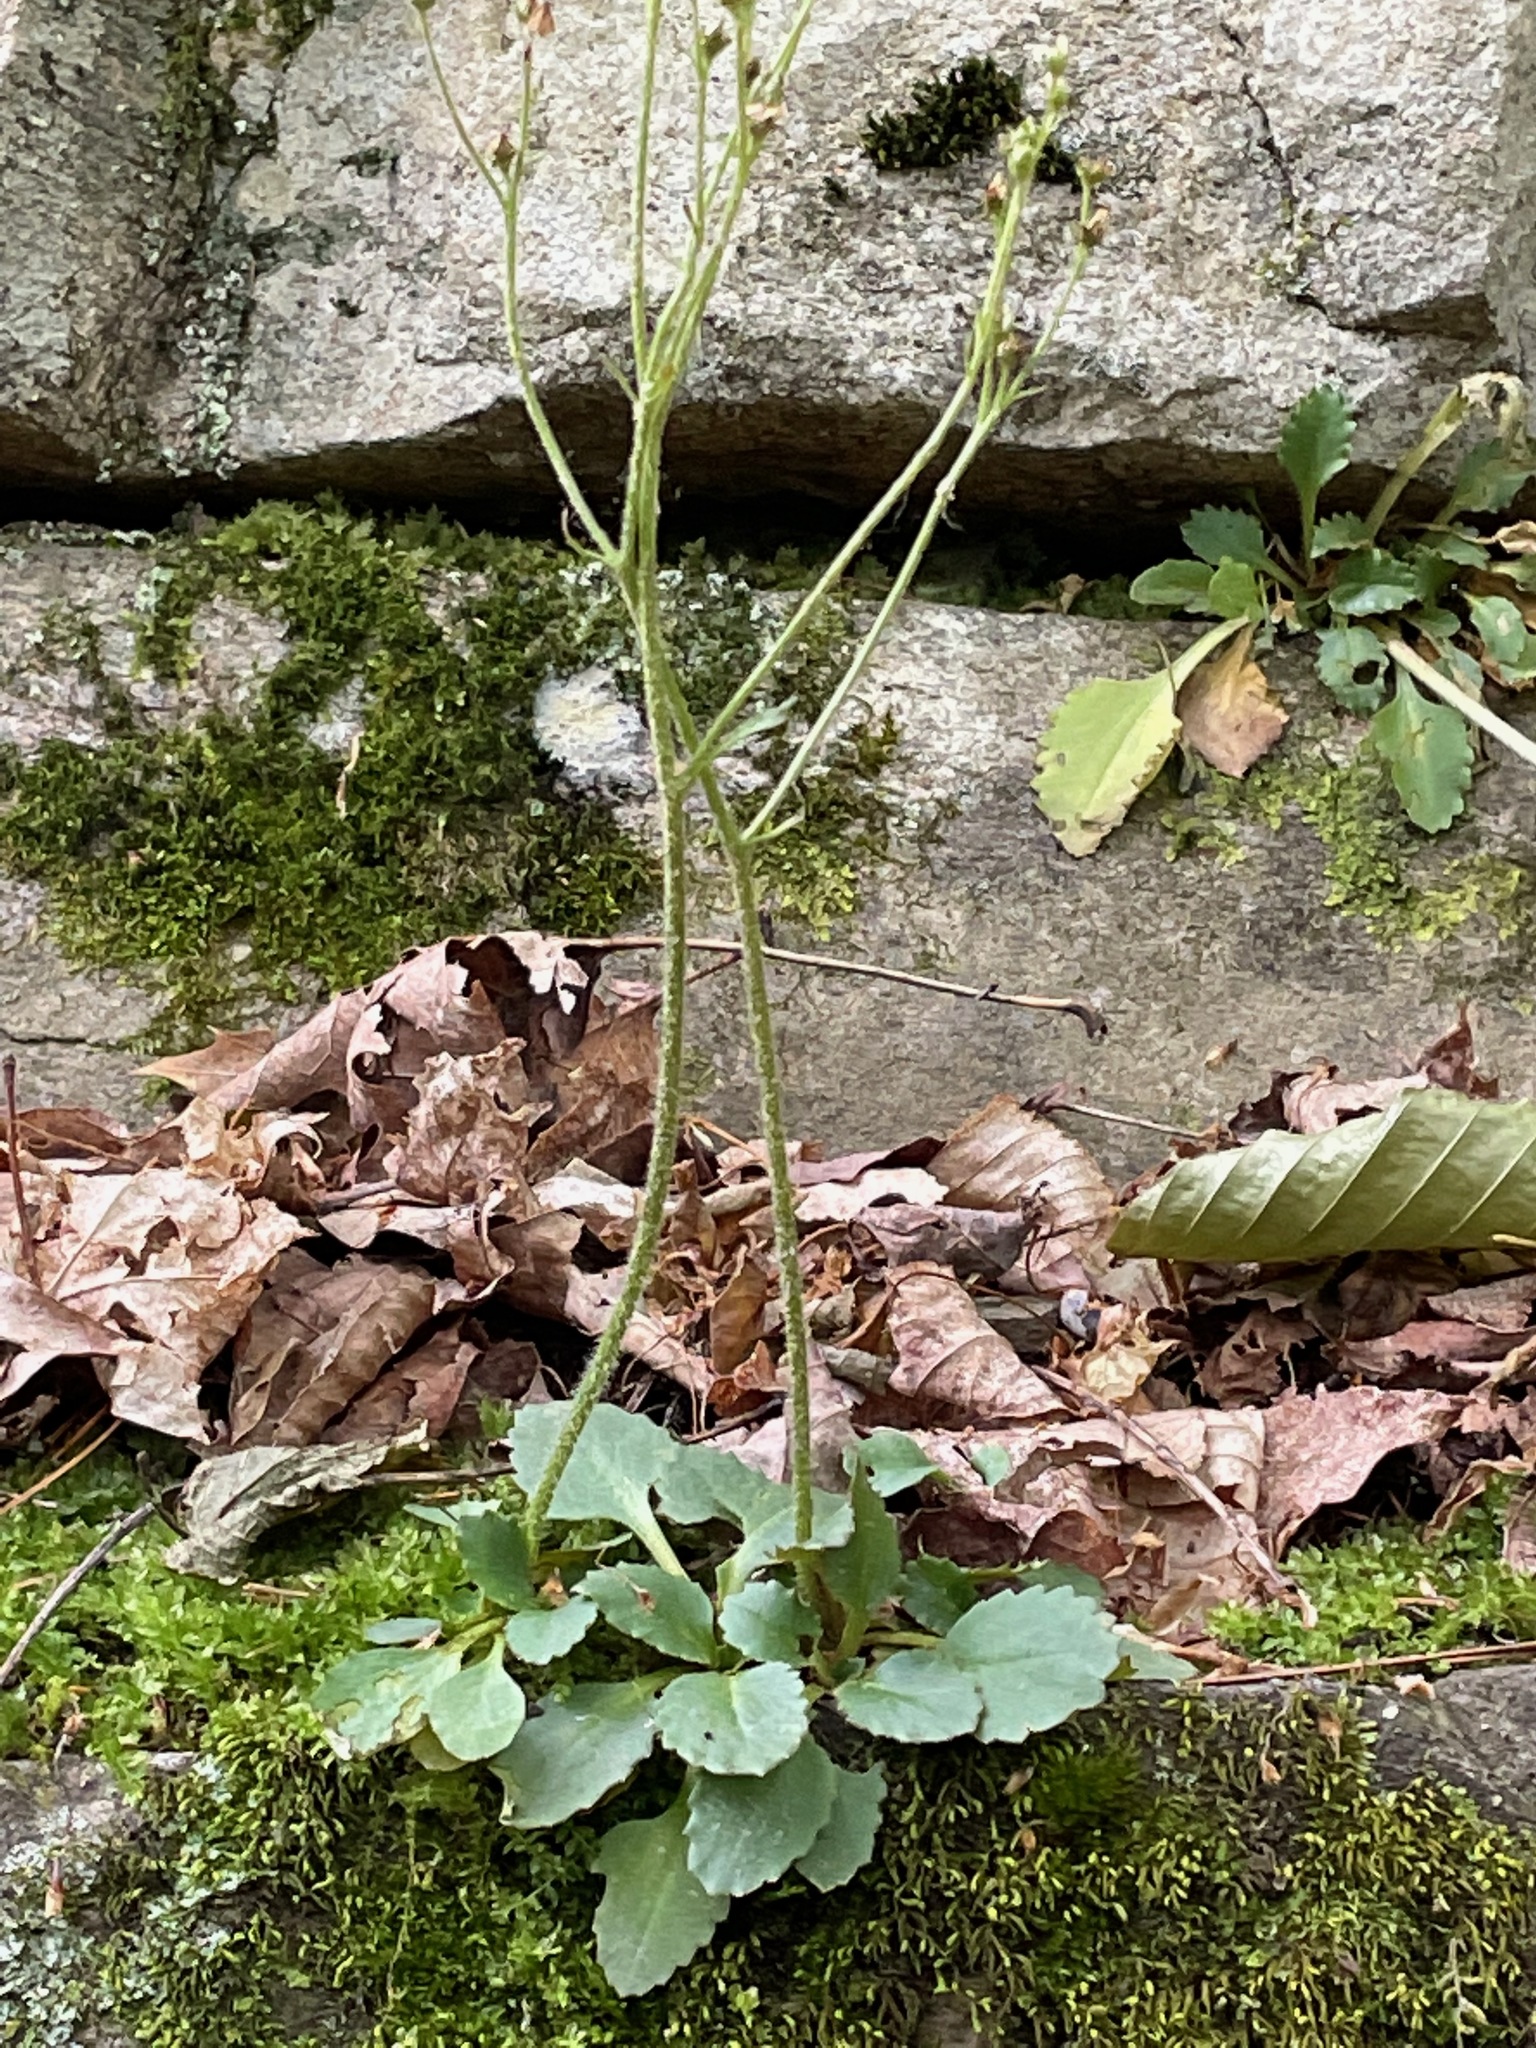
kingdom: Plantae
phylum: Tracheophyta
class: Magnoliopsida
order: Saxifragales
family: Saxifragaceae
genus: Micranthes
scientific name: Micranthes virginiensis
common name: Early saxifrage
